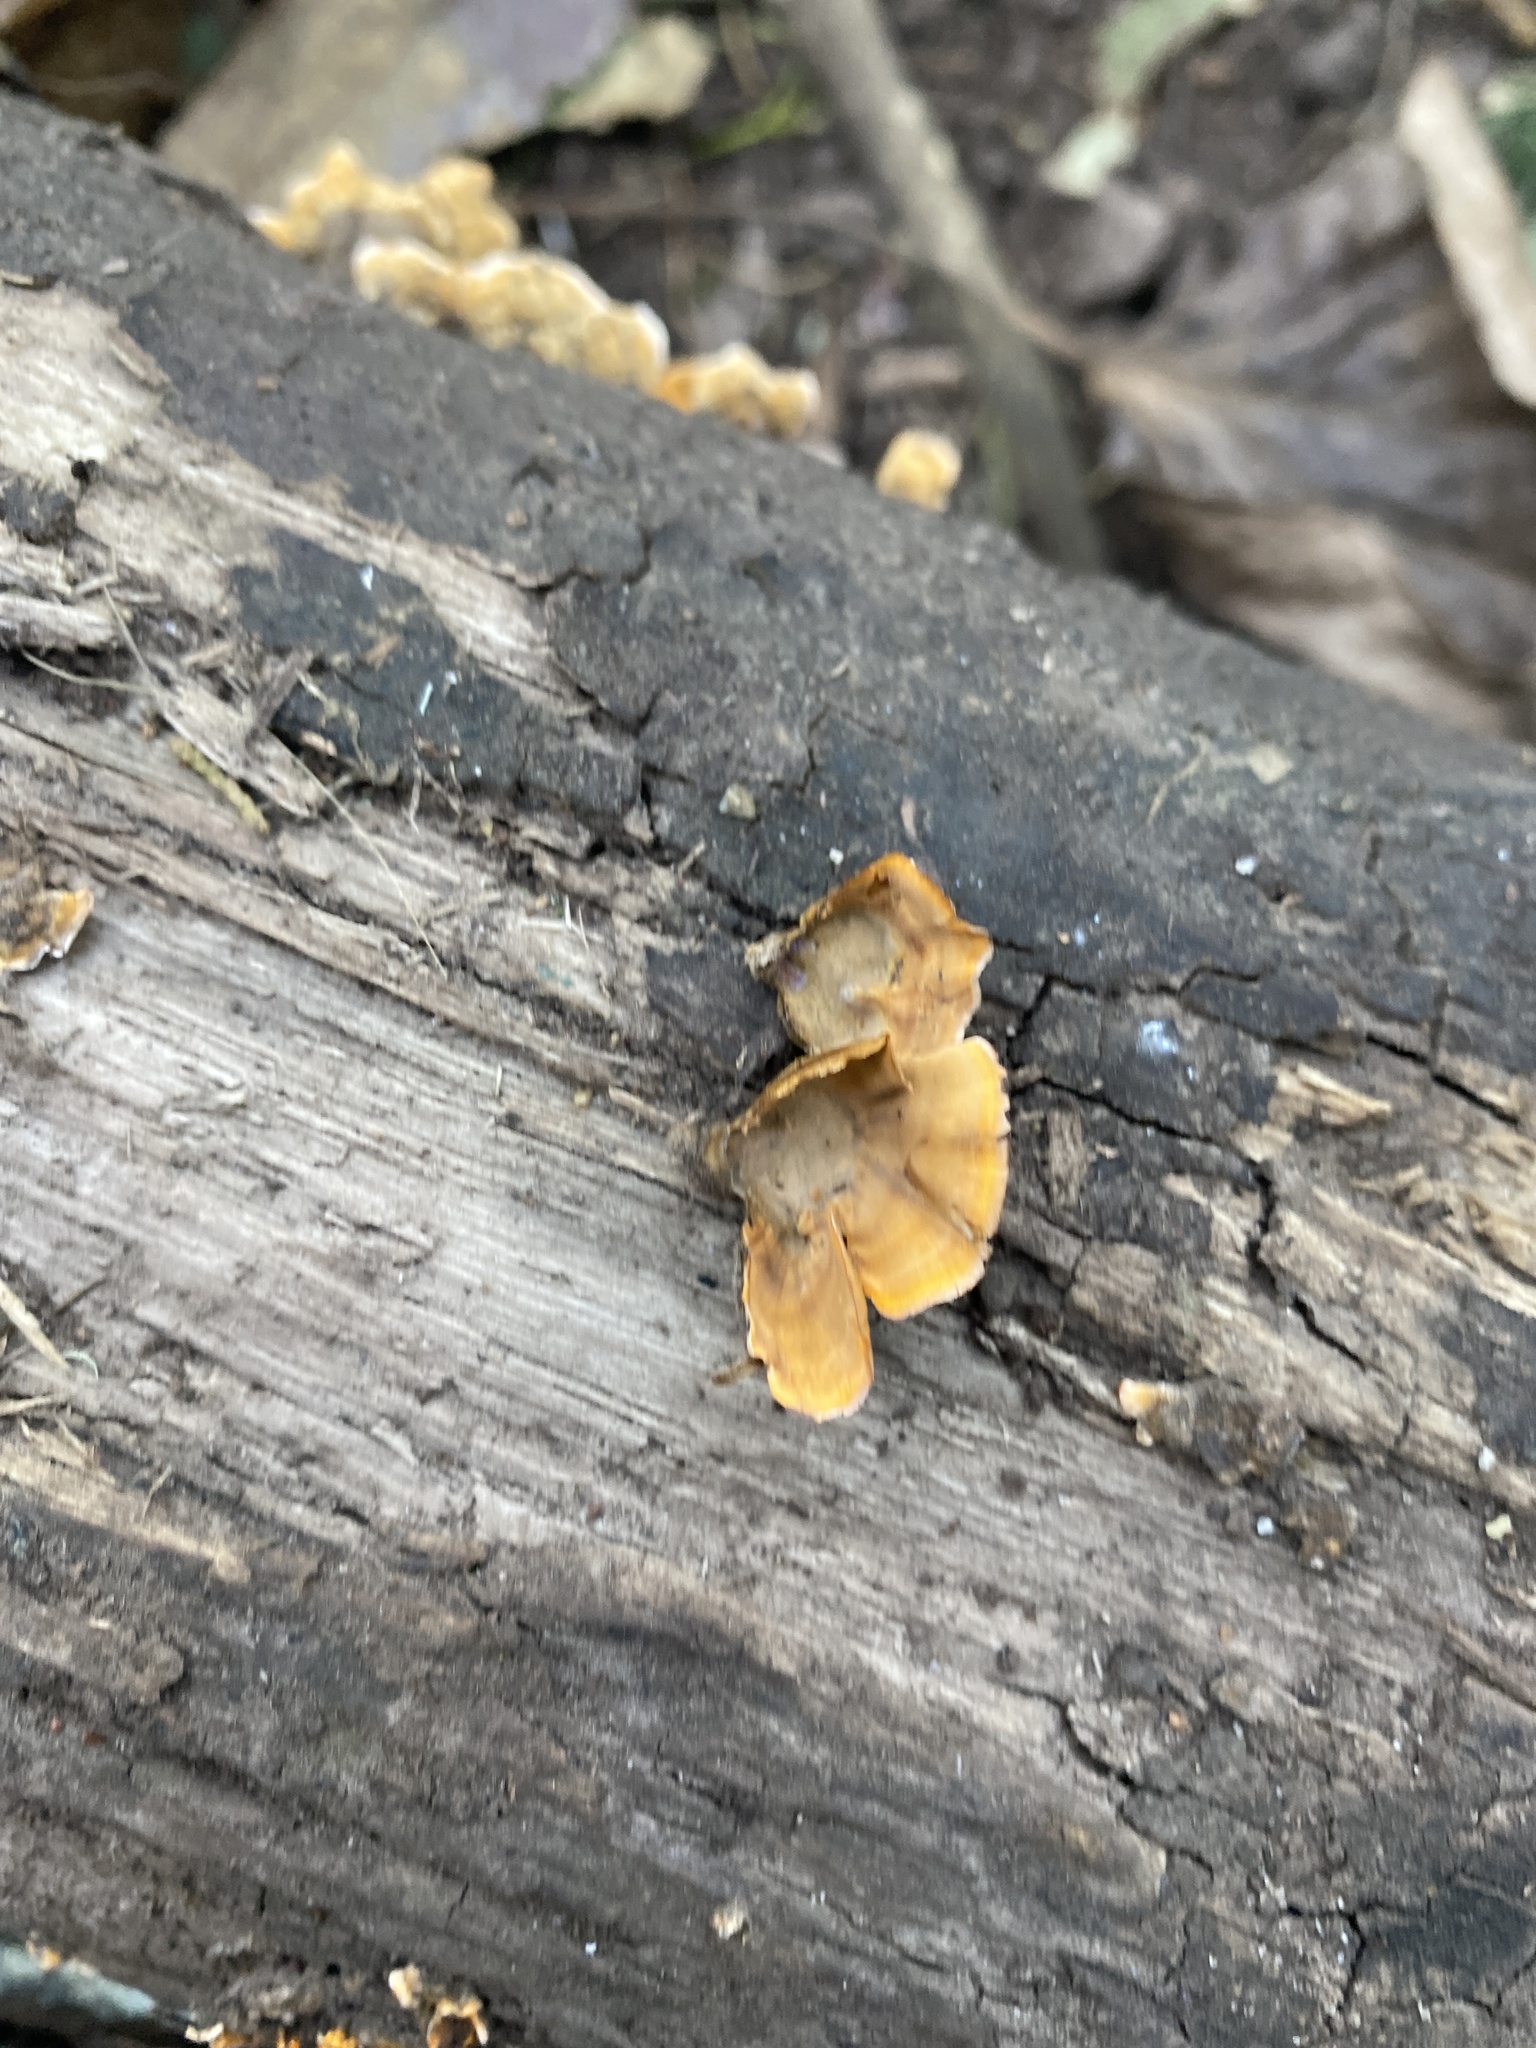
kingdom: Fungi
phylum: Basidiomycota
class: Agaricomycetes
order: Russulales
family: Stereaceae
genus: Stereum
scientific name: Stereum hirsutum
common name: Hairy curtain crust
